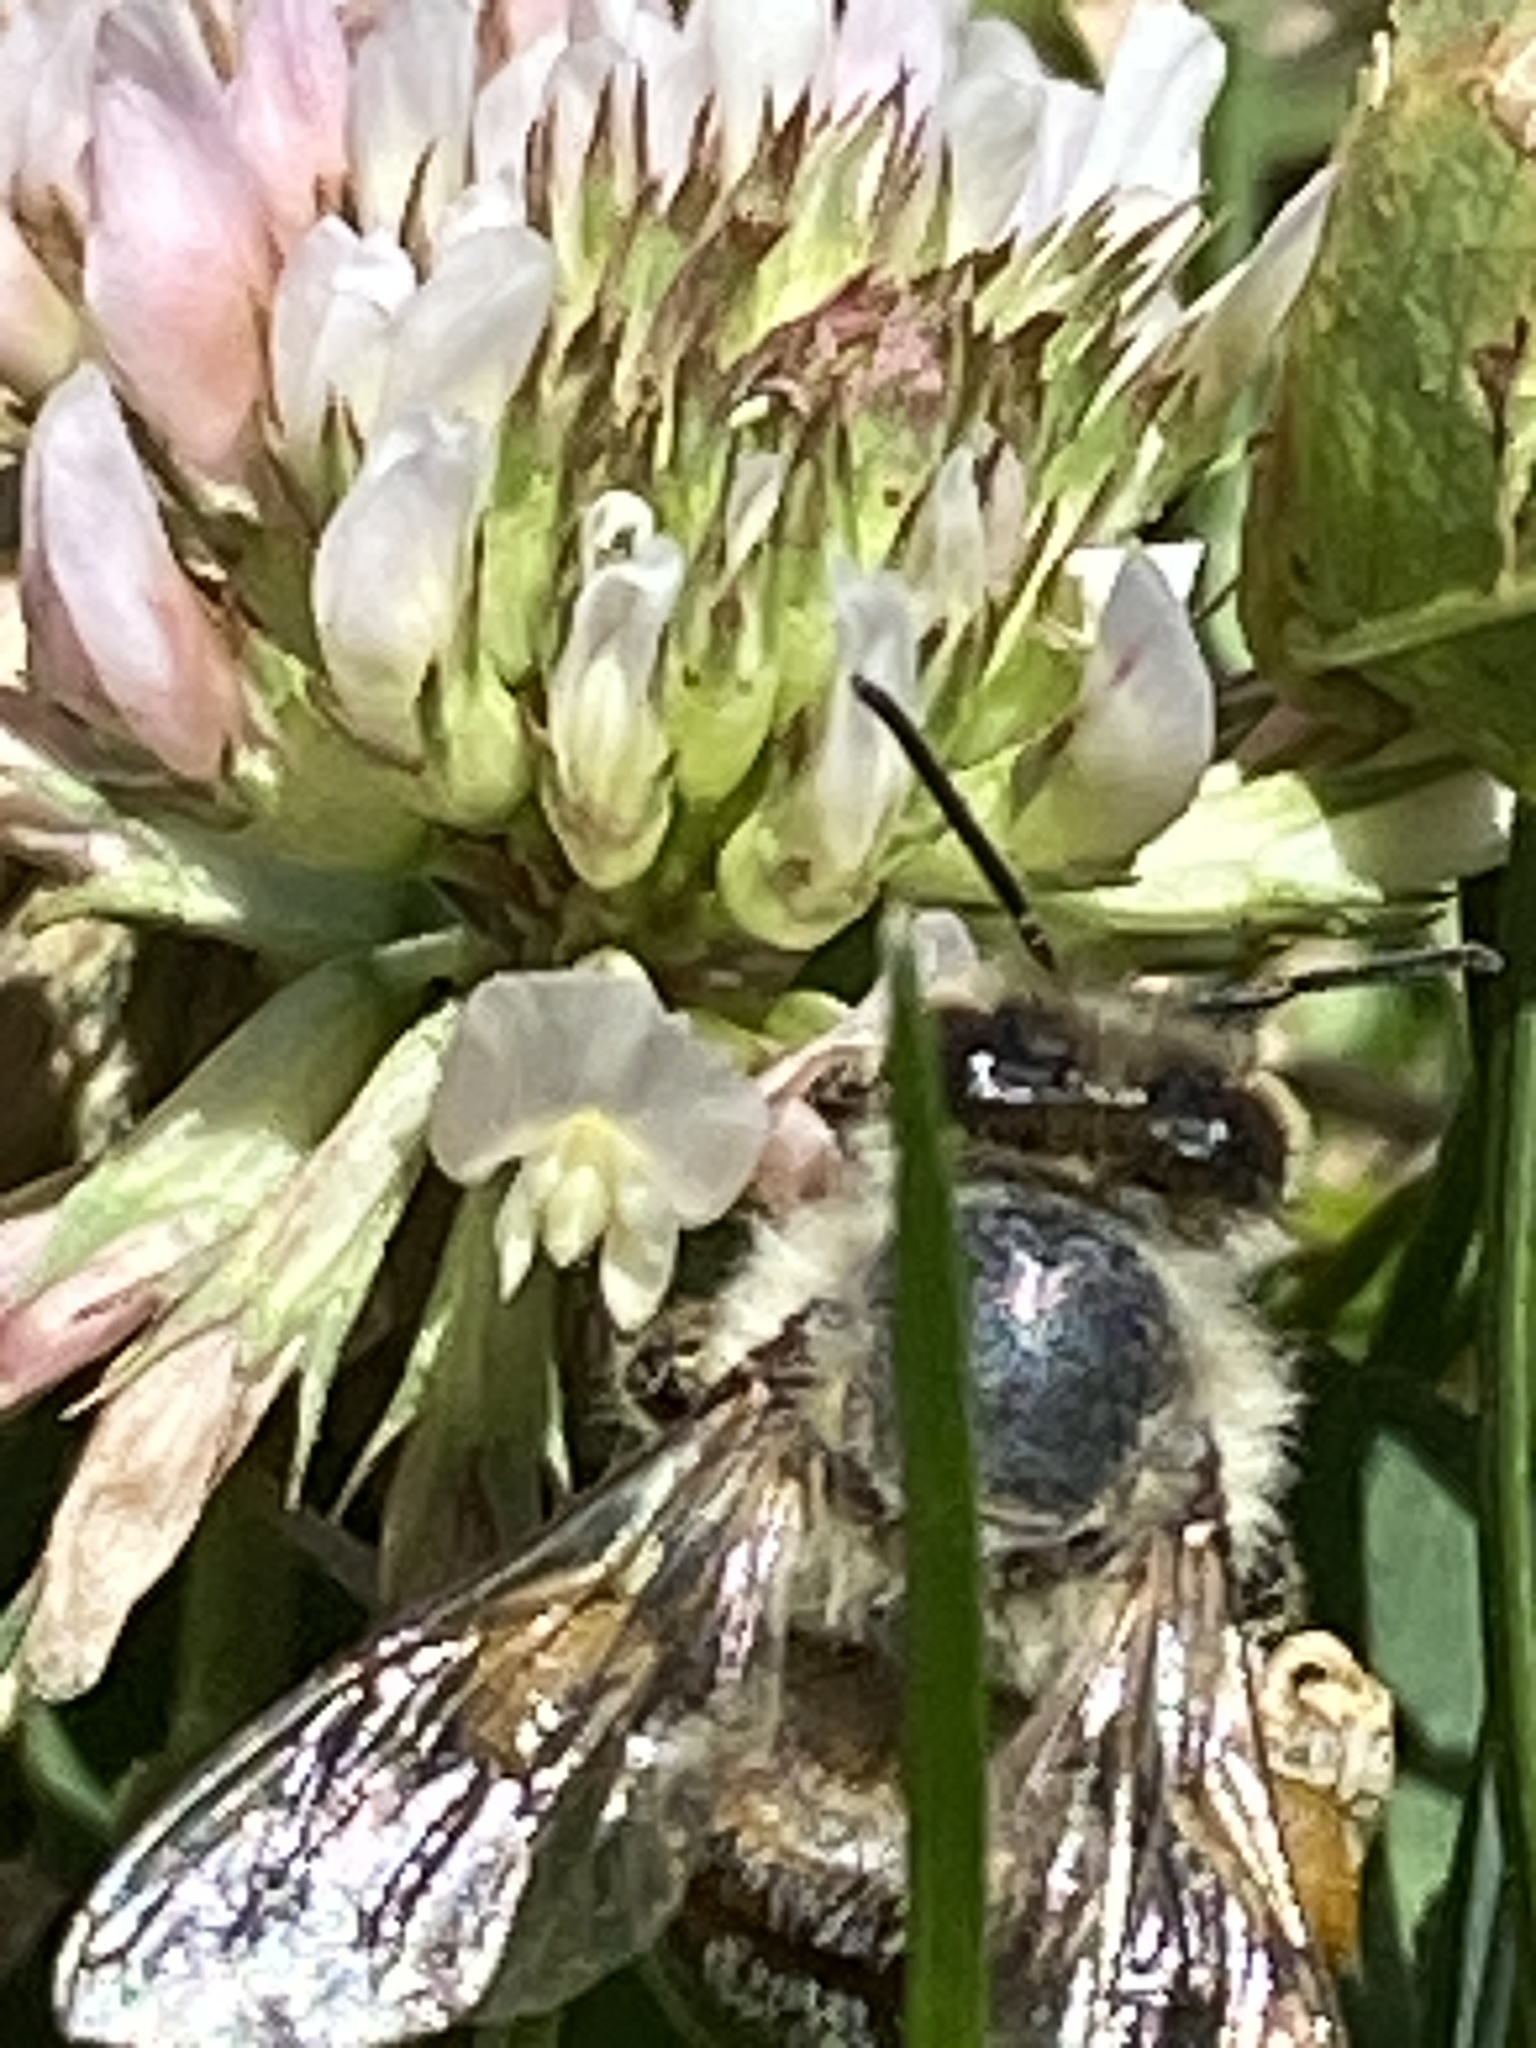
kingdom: Animalia
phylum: Arthropoda
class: Insecta
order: Hymenoptera
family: Apidae
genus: Apis
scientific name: Apis mellifera
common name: Honey bee
